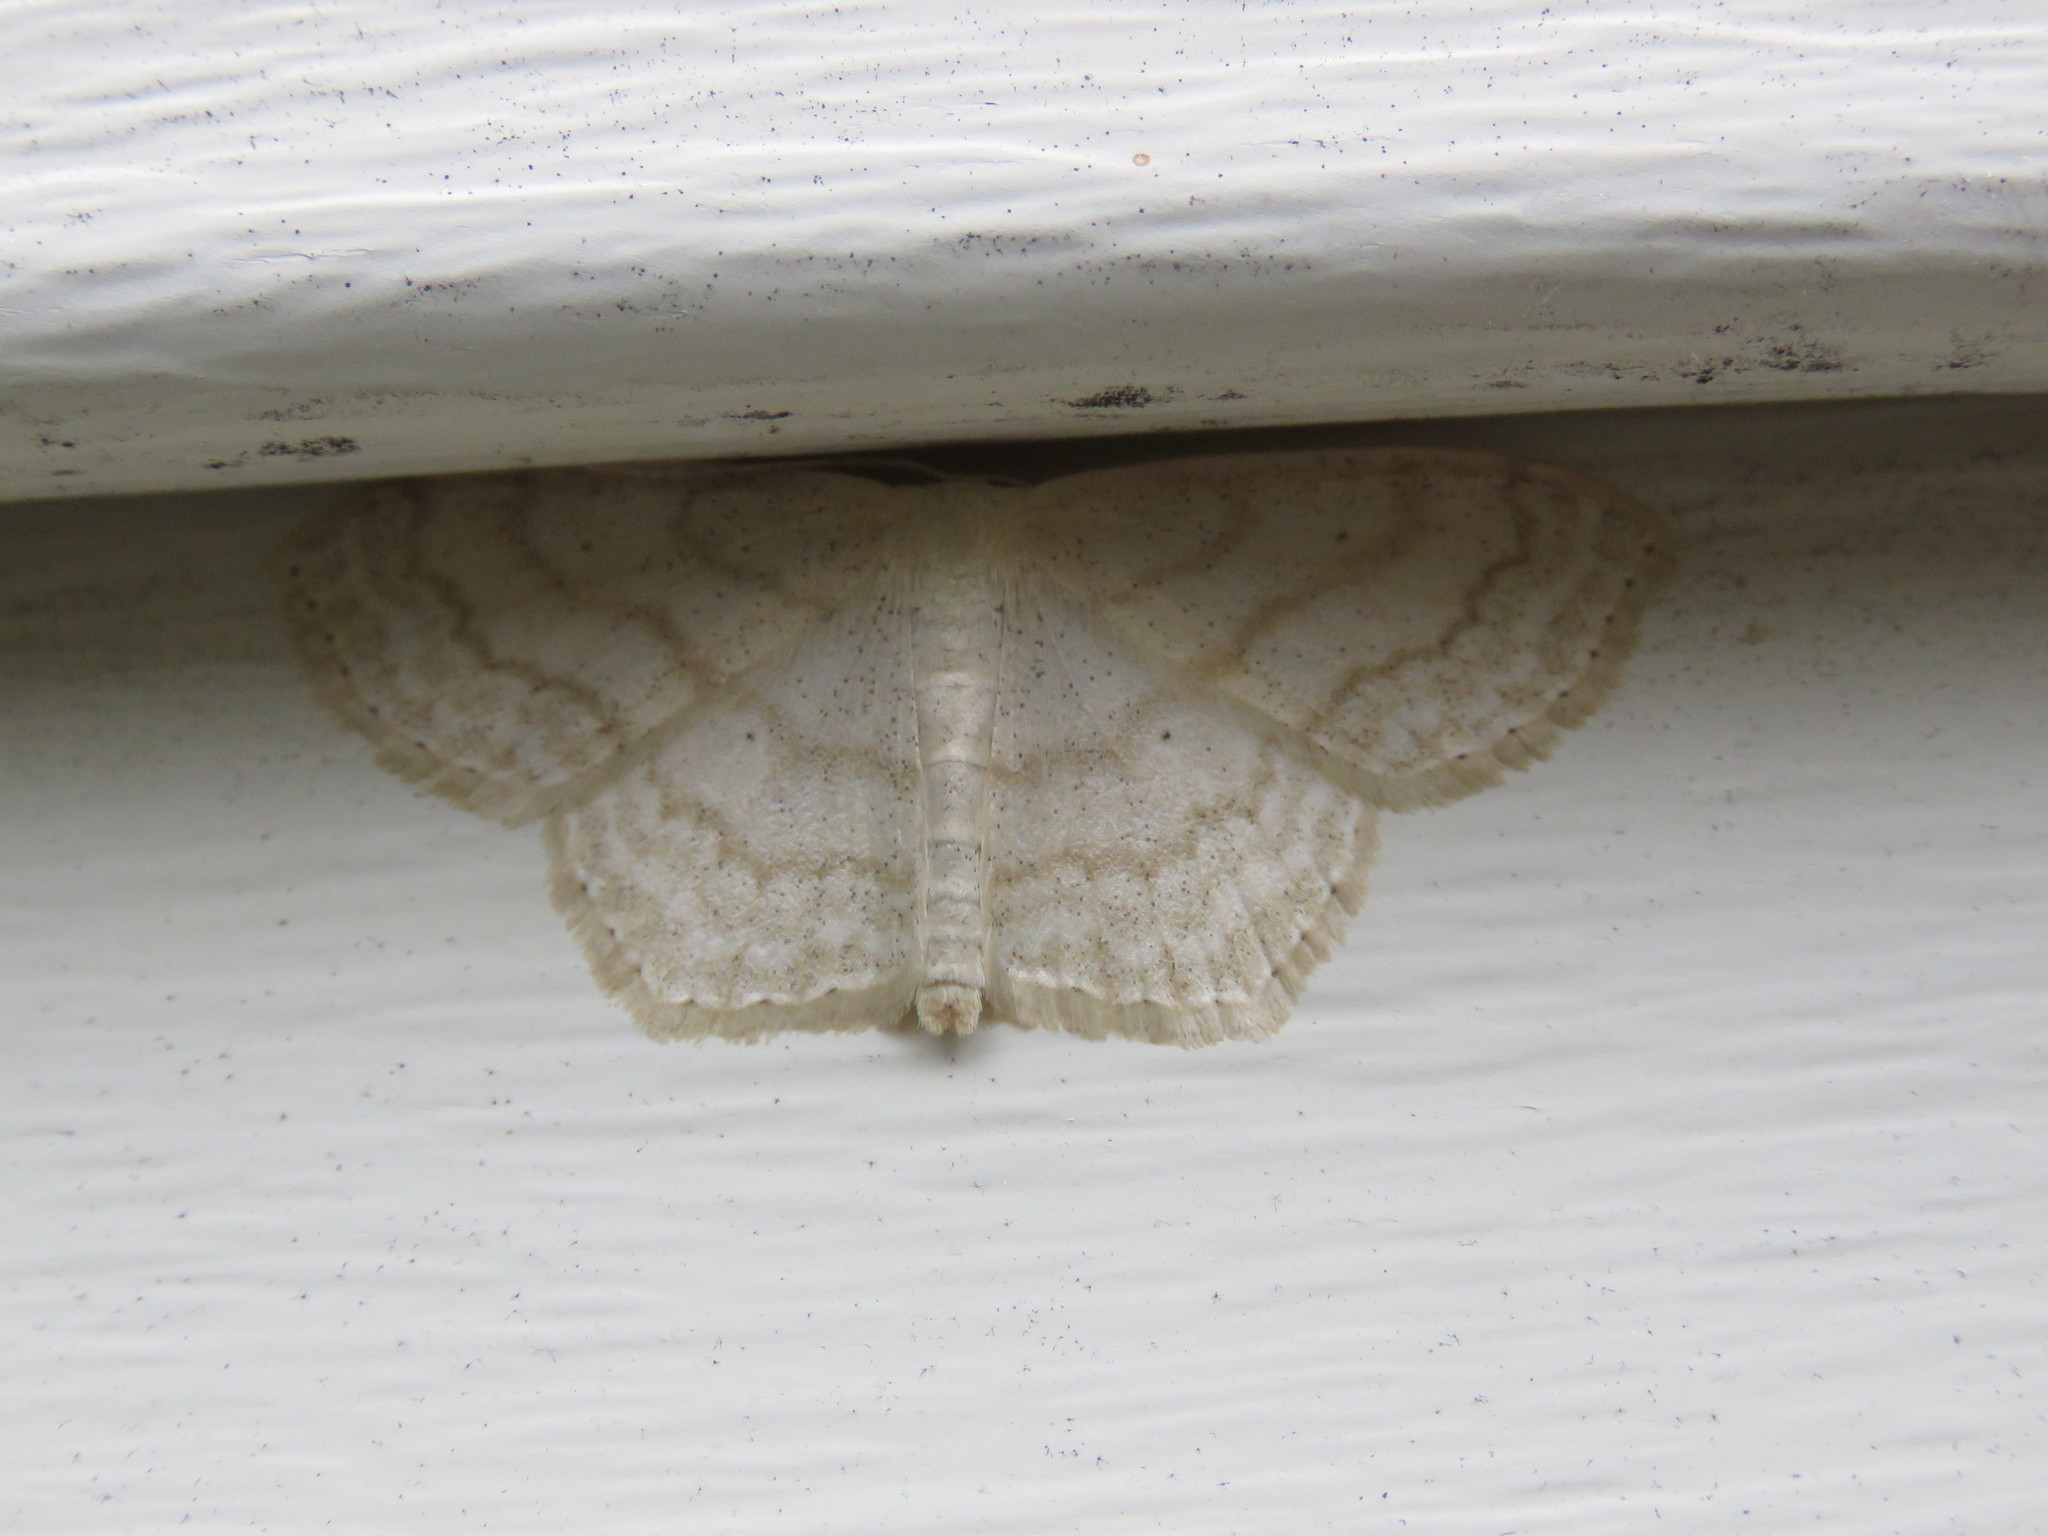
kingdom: Animalia
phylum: Arthropoda
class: Insecta
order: Lepidoptera
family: Geometridae
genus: Scopula
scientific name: Scopula limboundata
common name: Large lace border
